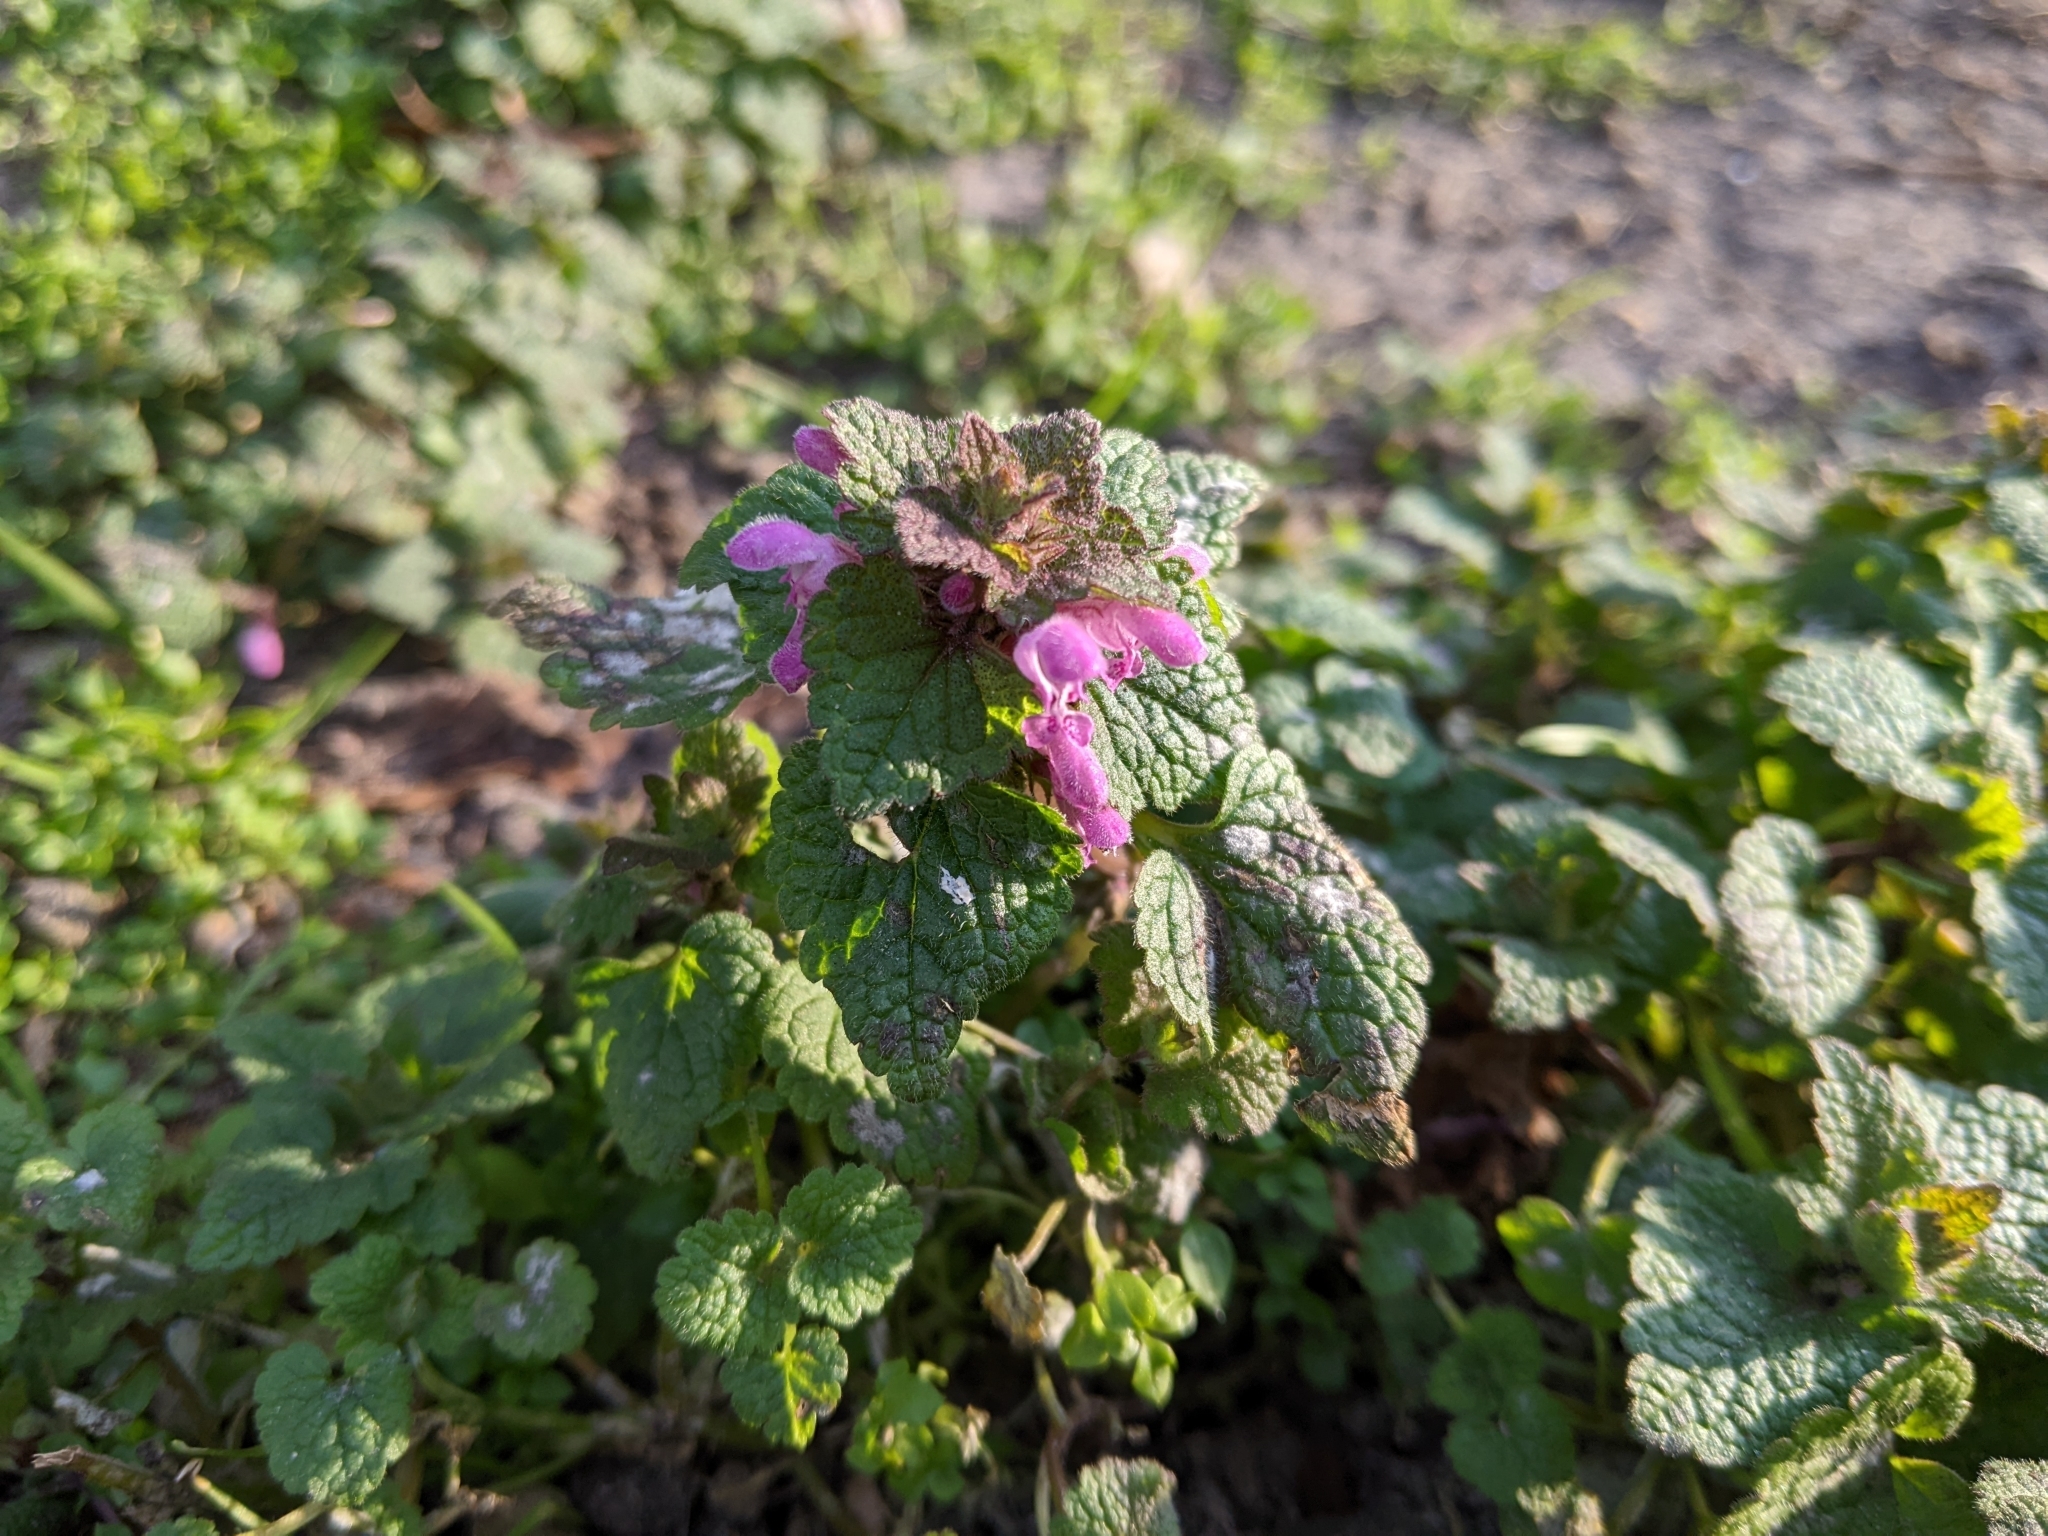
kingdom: Plantae
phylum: Tracheophyta
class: Magnoliopsida
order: Lamiales
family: Lamiaceae
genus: Lamium
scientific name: Lamium purpureum
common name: Red dead-nettle
